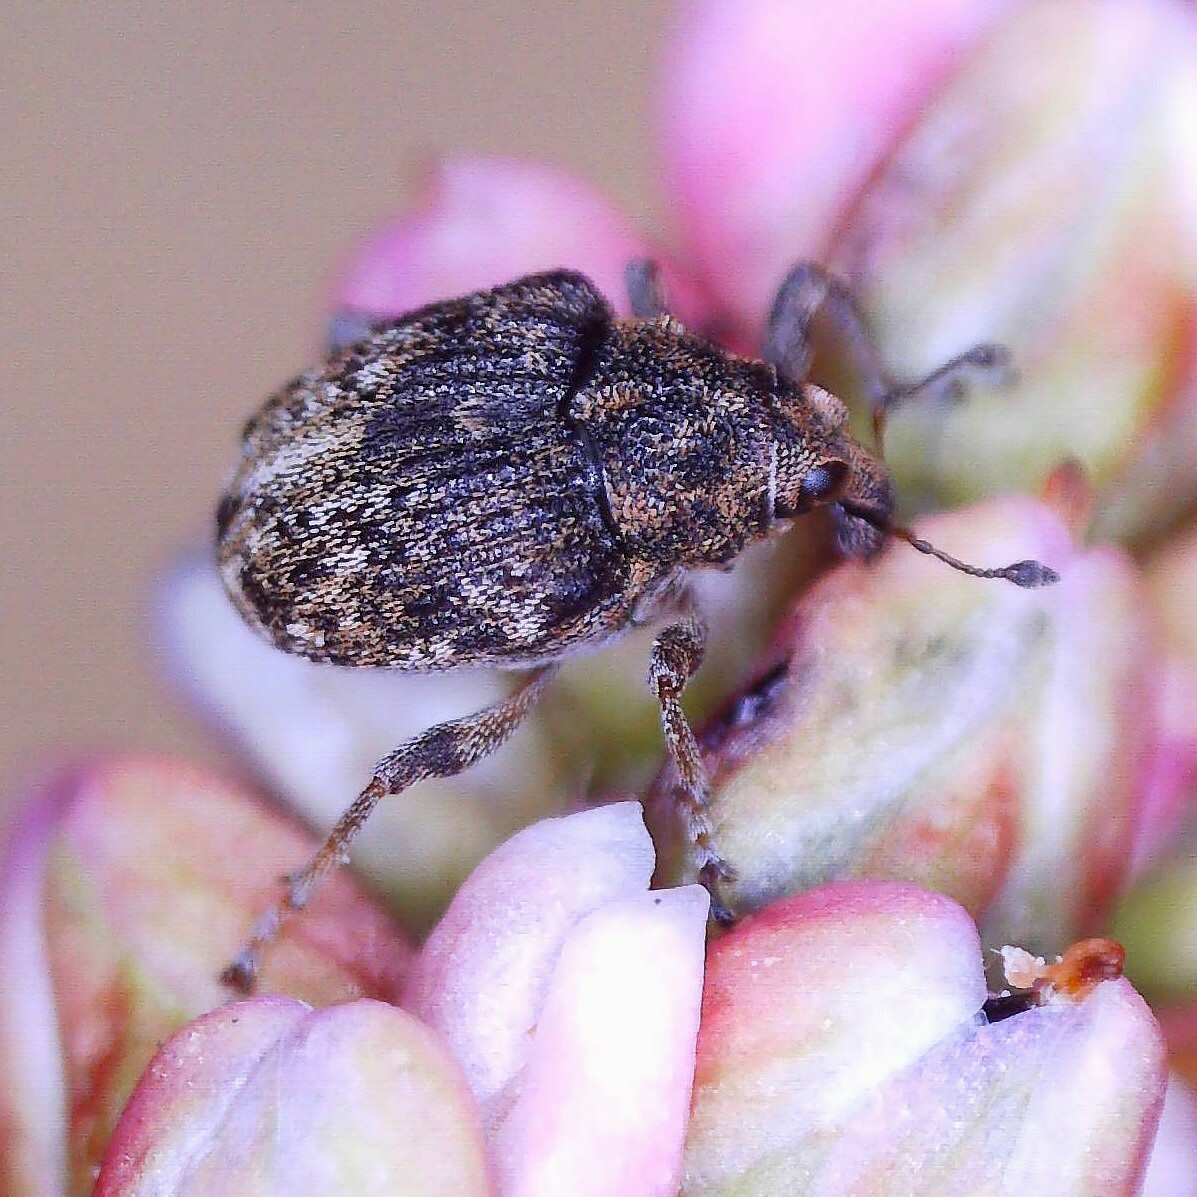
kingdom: Animalia
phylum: Arthropoda
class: Insecta
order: Coleoptera
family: Curculionidae
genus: Rhinoncus
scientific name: Rhinoncus bruchoides
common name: Weevil
